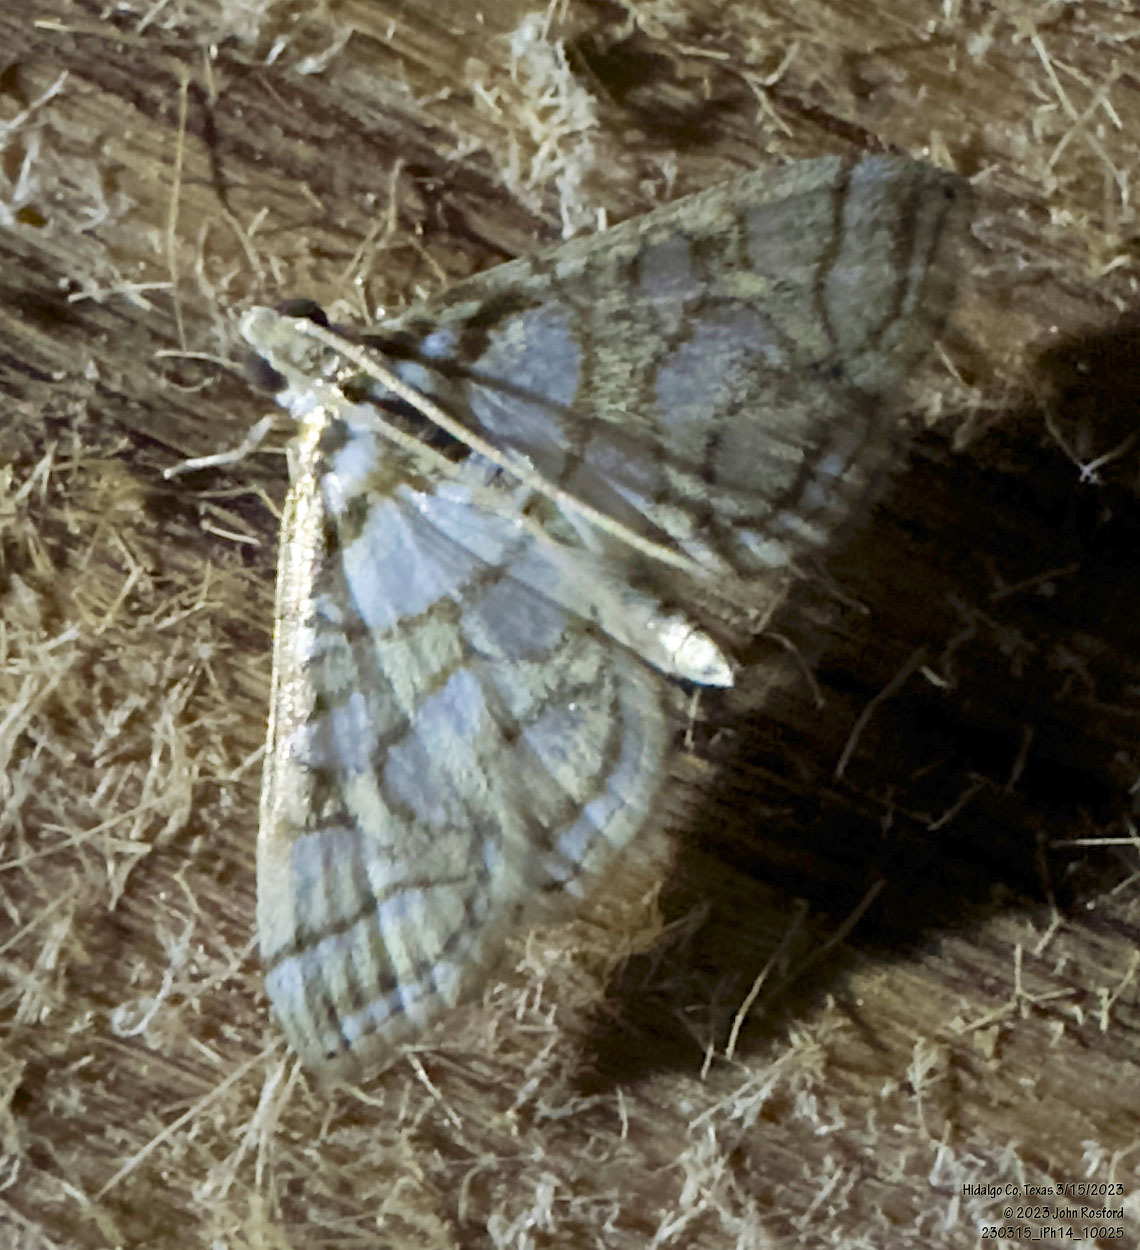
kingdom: Animalia
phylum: Arthropoda
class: Insecta
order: Lepidoptera
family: Crambidae
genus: Pseudopyrausta
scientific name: Pseudopyrausta santatalis
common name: Moth
